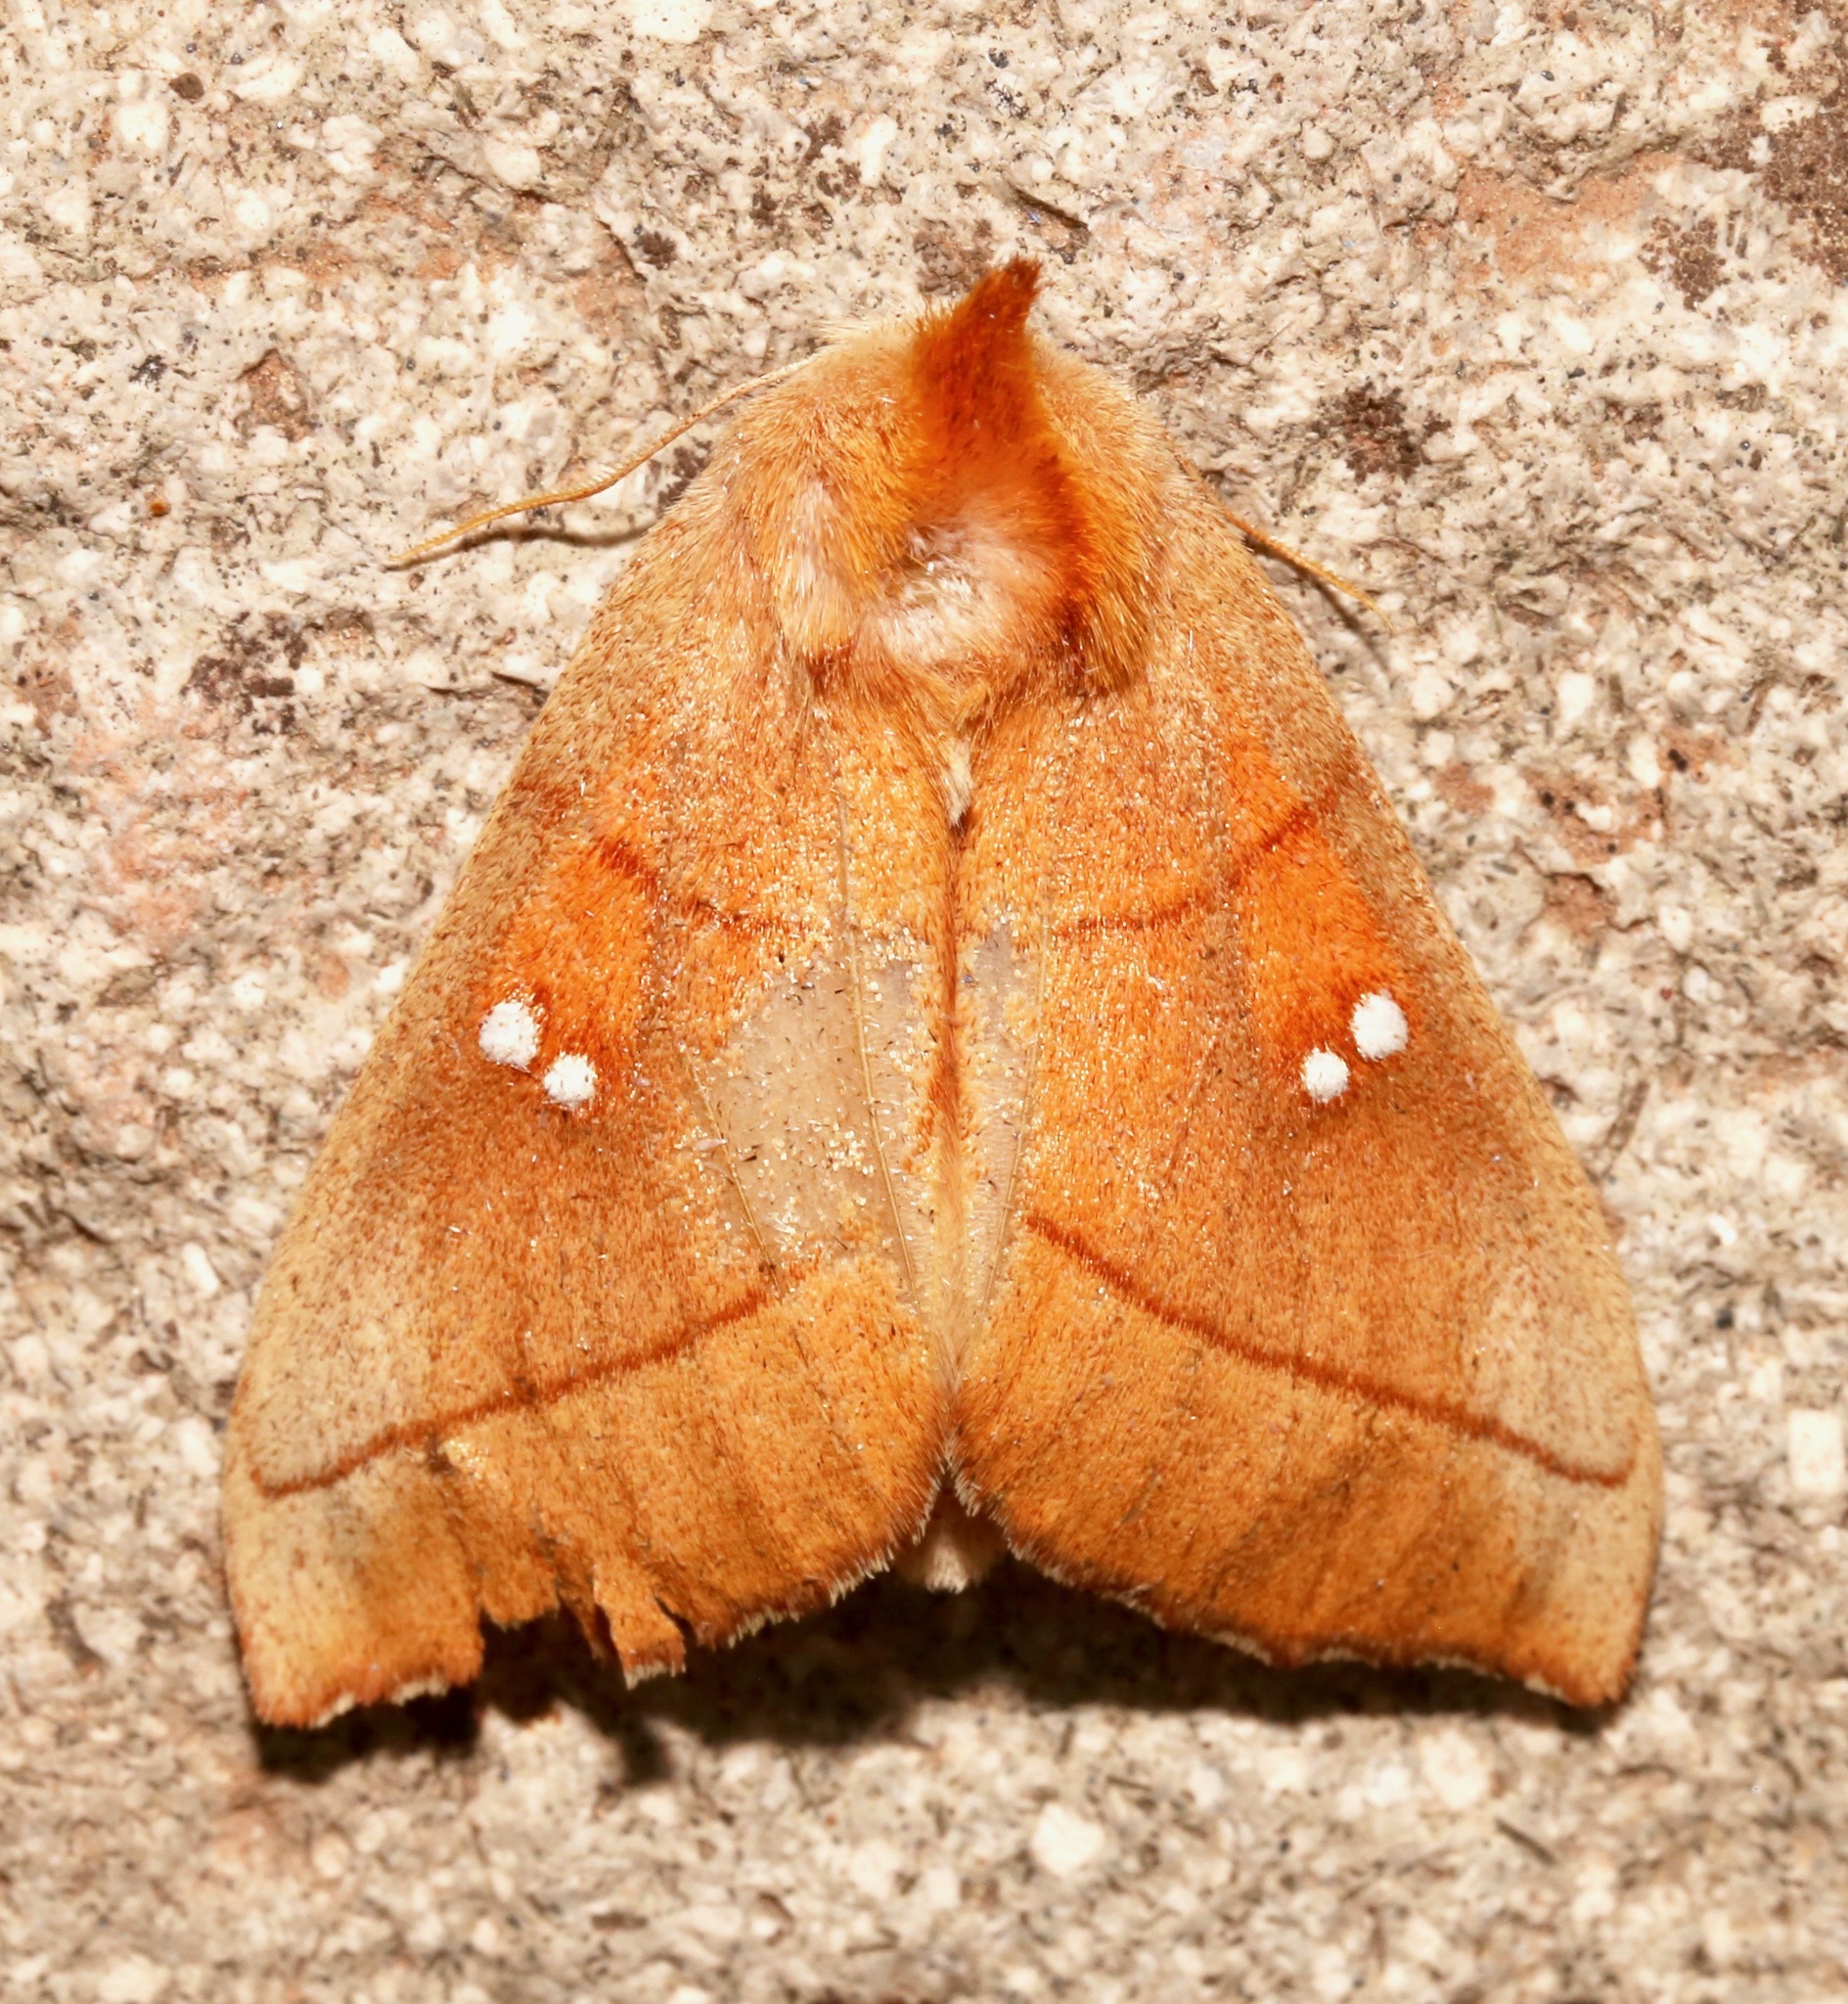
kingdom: Animalia
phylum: Arthropoda
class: Insecta
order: Lepidoptera
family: Notodontidae
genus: Nadata
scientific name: Nadata gibbosa
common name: White-dotted prominent
